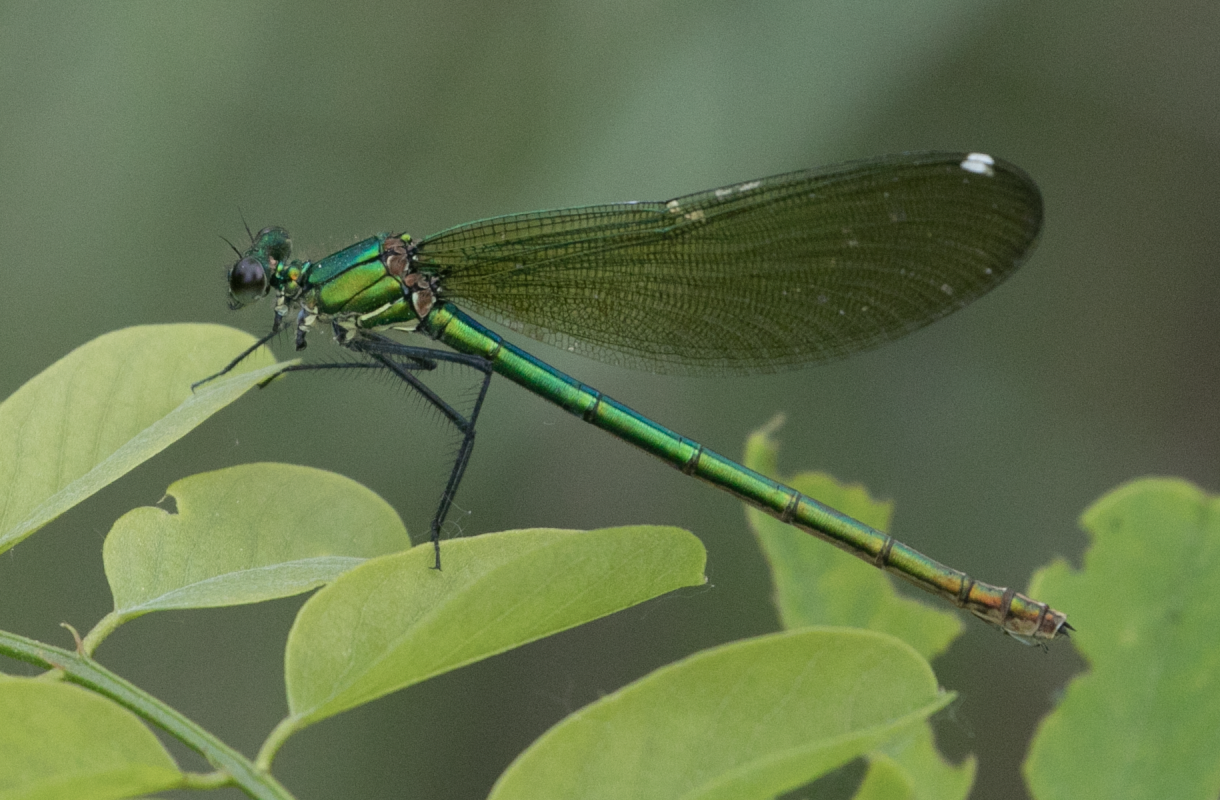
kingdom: Animalia
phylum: Arthropoda
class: Insecta
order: Odonata
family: Calopterygidae
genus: Calopteryx
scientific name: Calopteryx splendens
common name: Banded demoiselle
